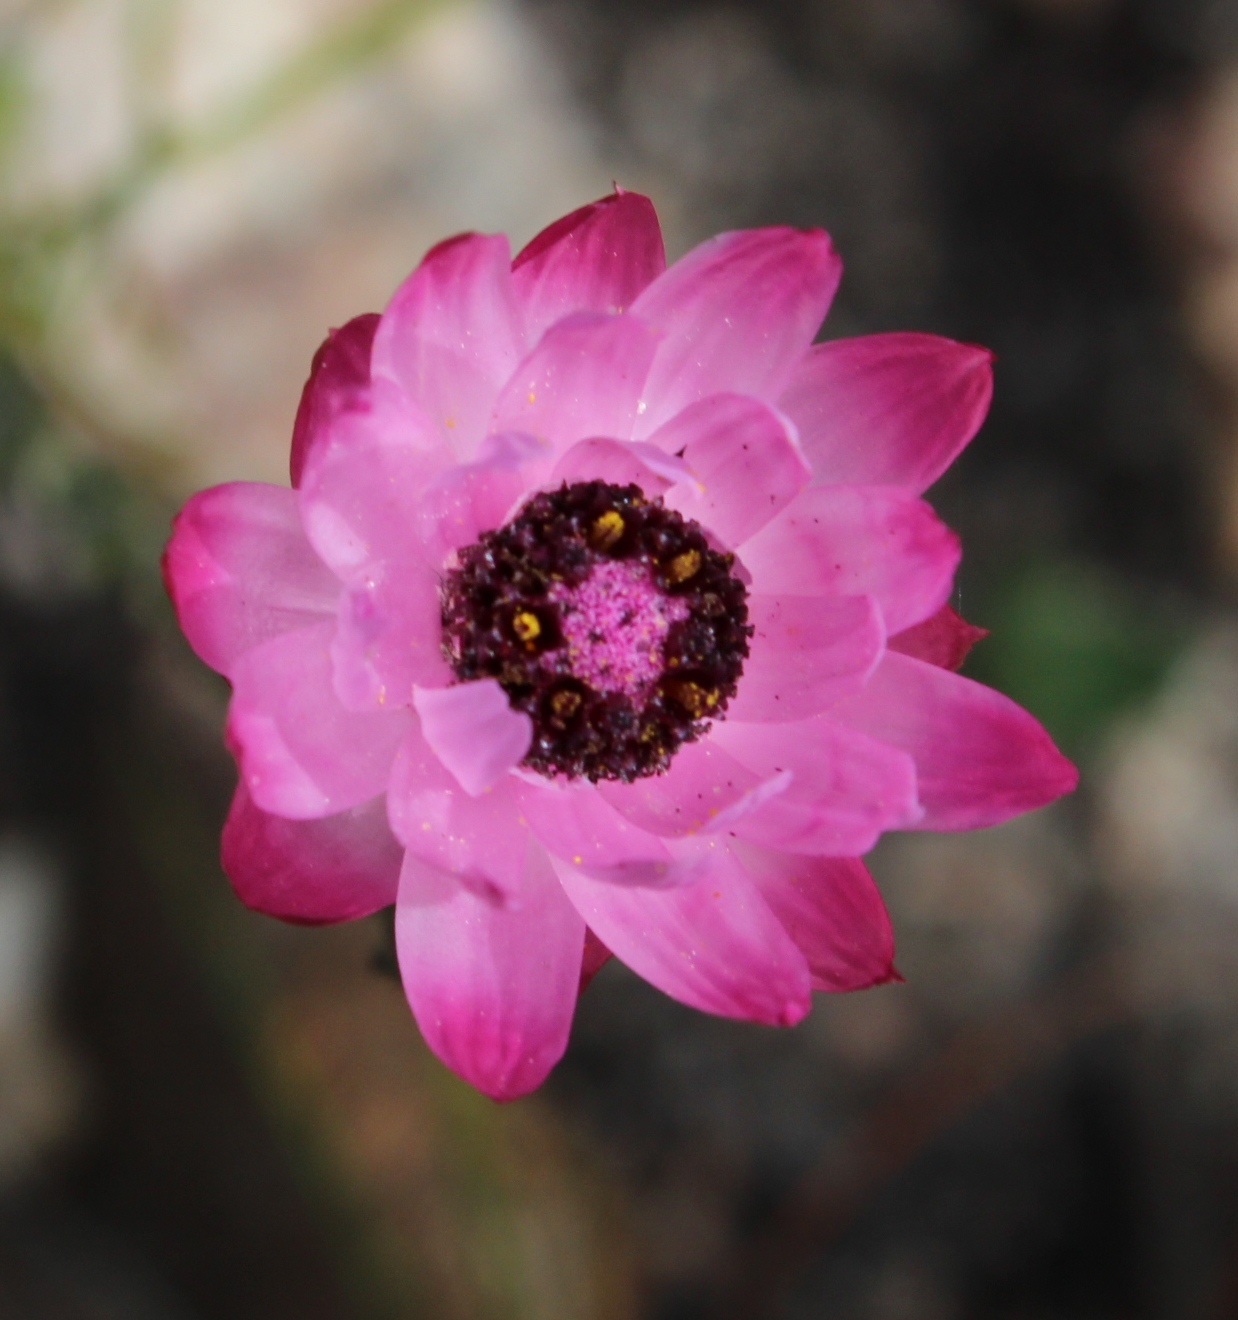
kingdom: Plantae
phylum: Tracheophyta
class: Magnoliopsida
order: Asterales
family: Asteraceae
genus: Syncarpha
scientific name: Syncarpha canescens
